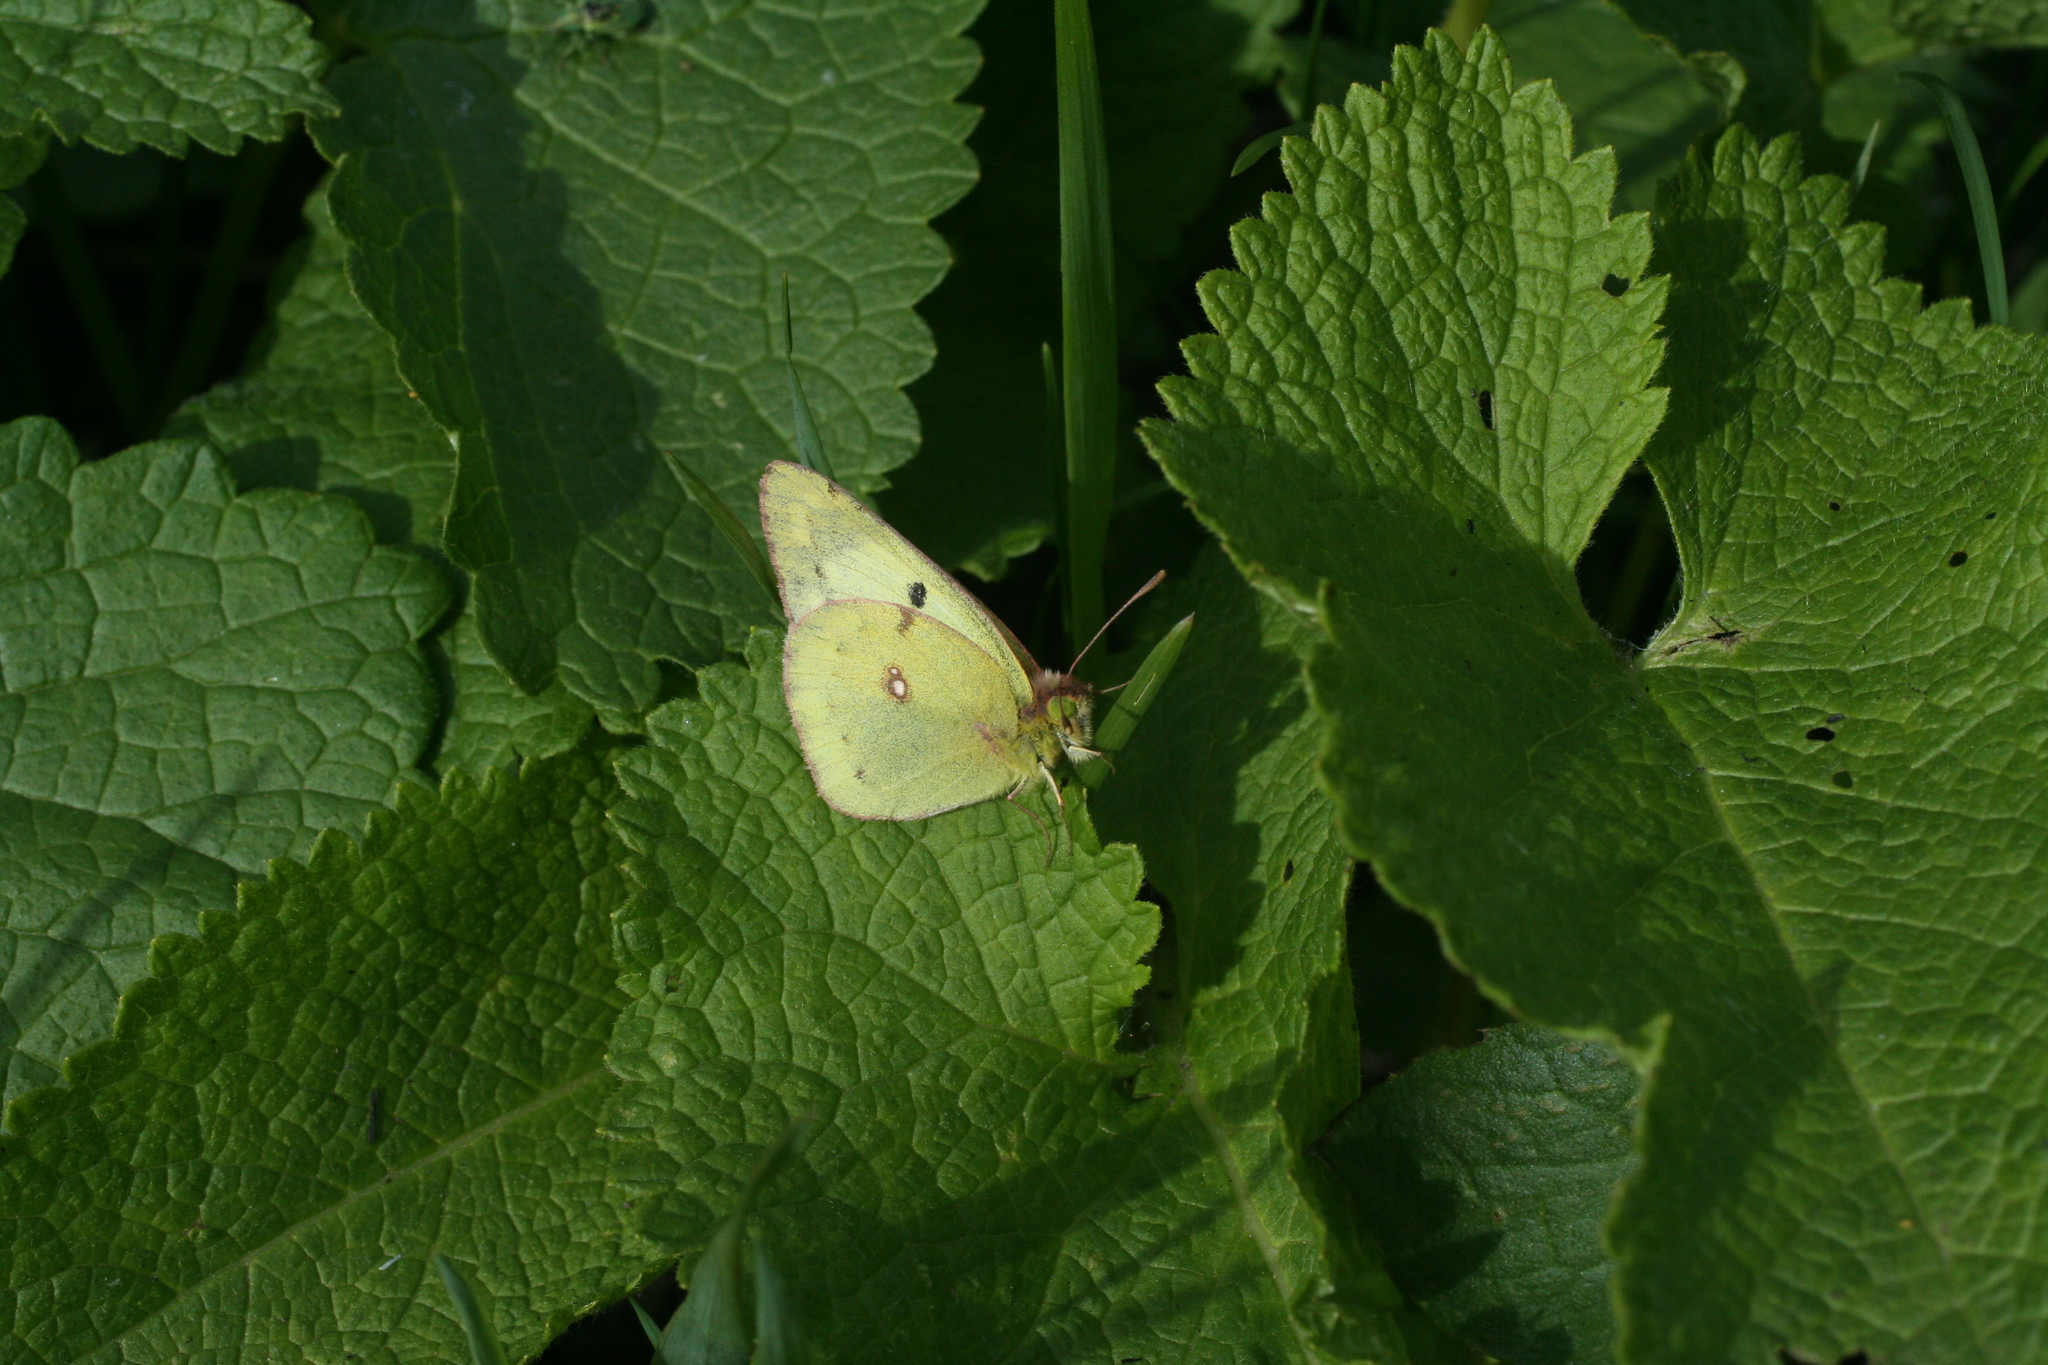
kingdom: Animalia
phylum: Arthropoda
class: Insecta
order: Lepidoptera
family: Pieridae
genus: Colias
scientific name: Colias hyale
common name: Pale clouded yellow
